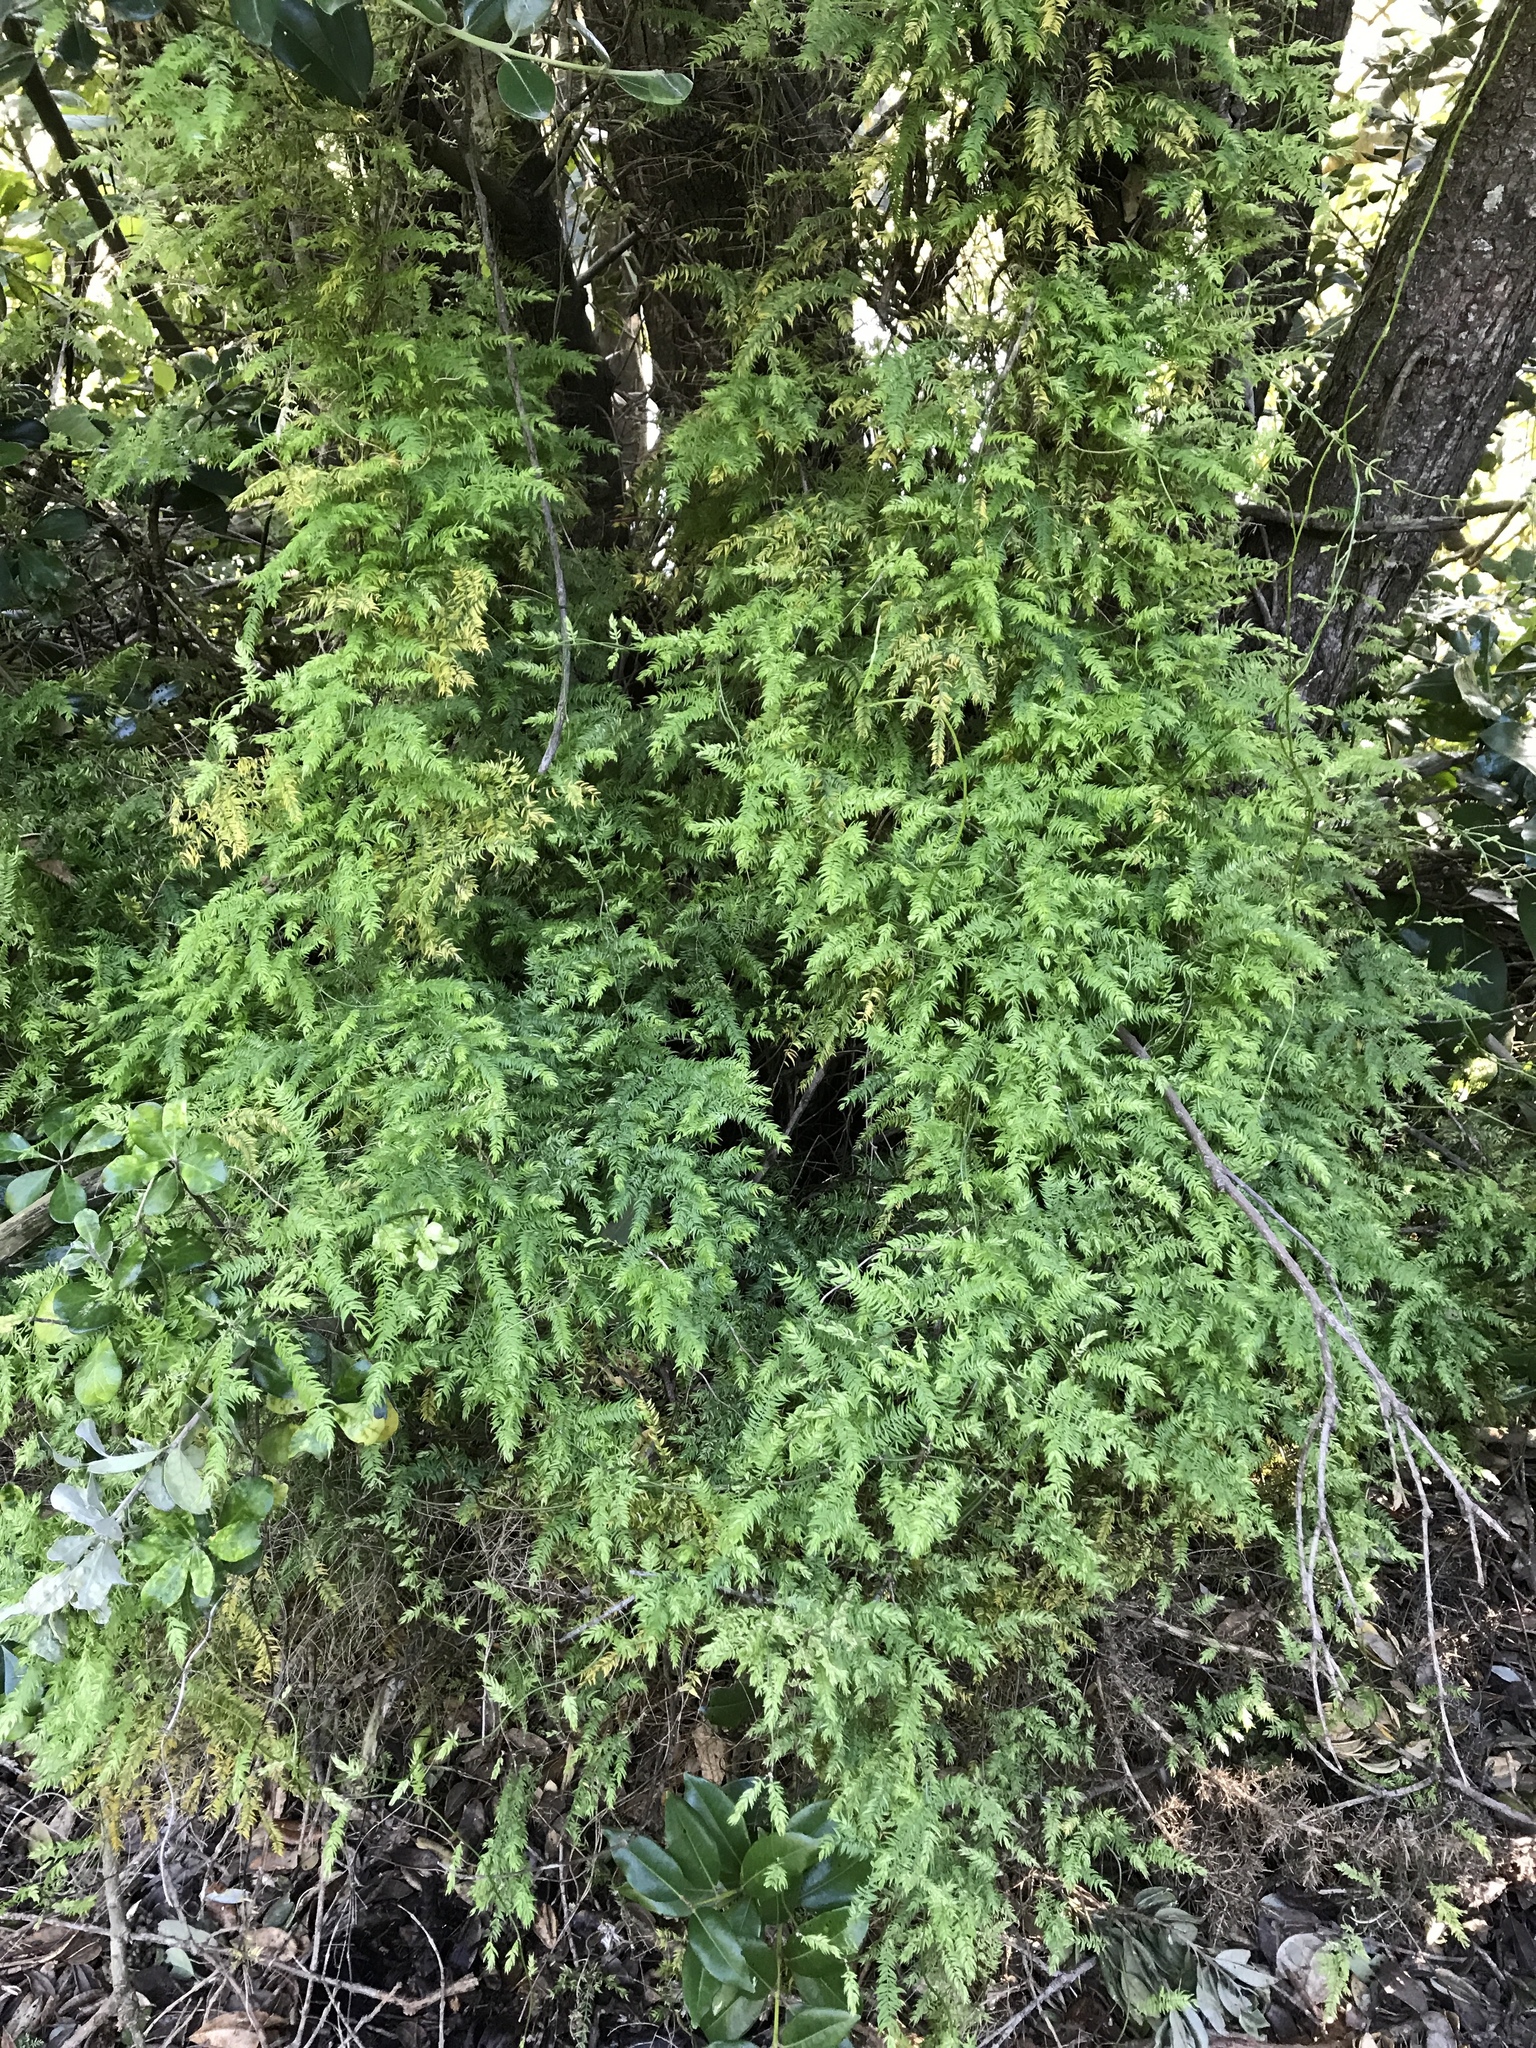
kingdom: Plantae
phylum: Tracheophyta
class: Liliopsida
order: Asparagales
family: Asparagaceae
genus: Asparagus
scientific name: Asparagus scandens
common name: Asparagus-fern
